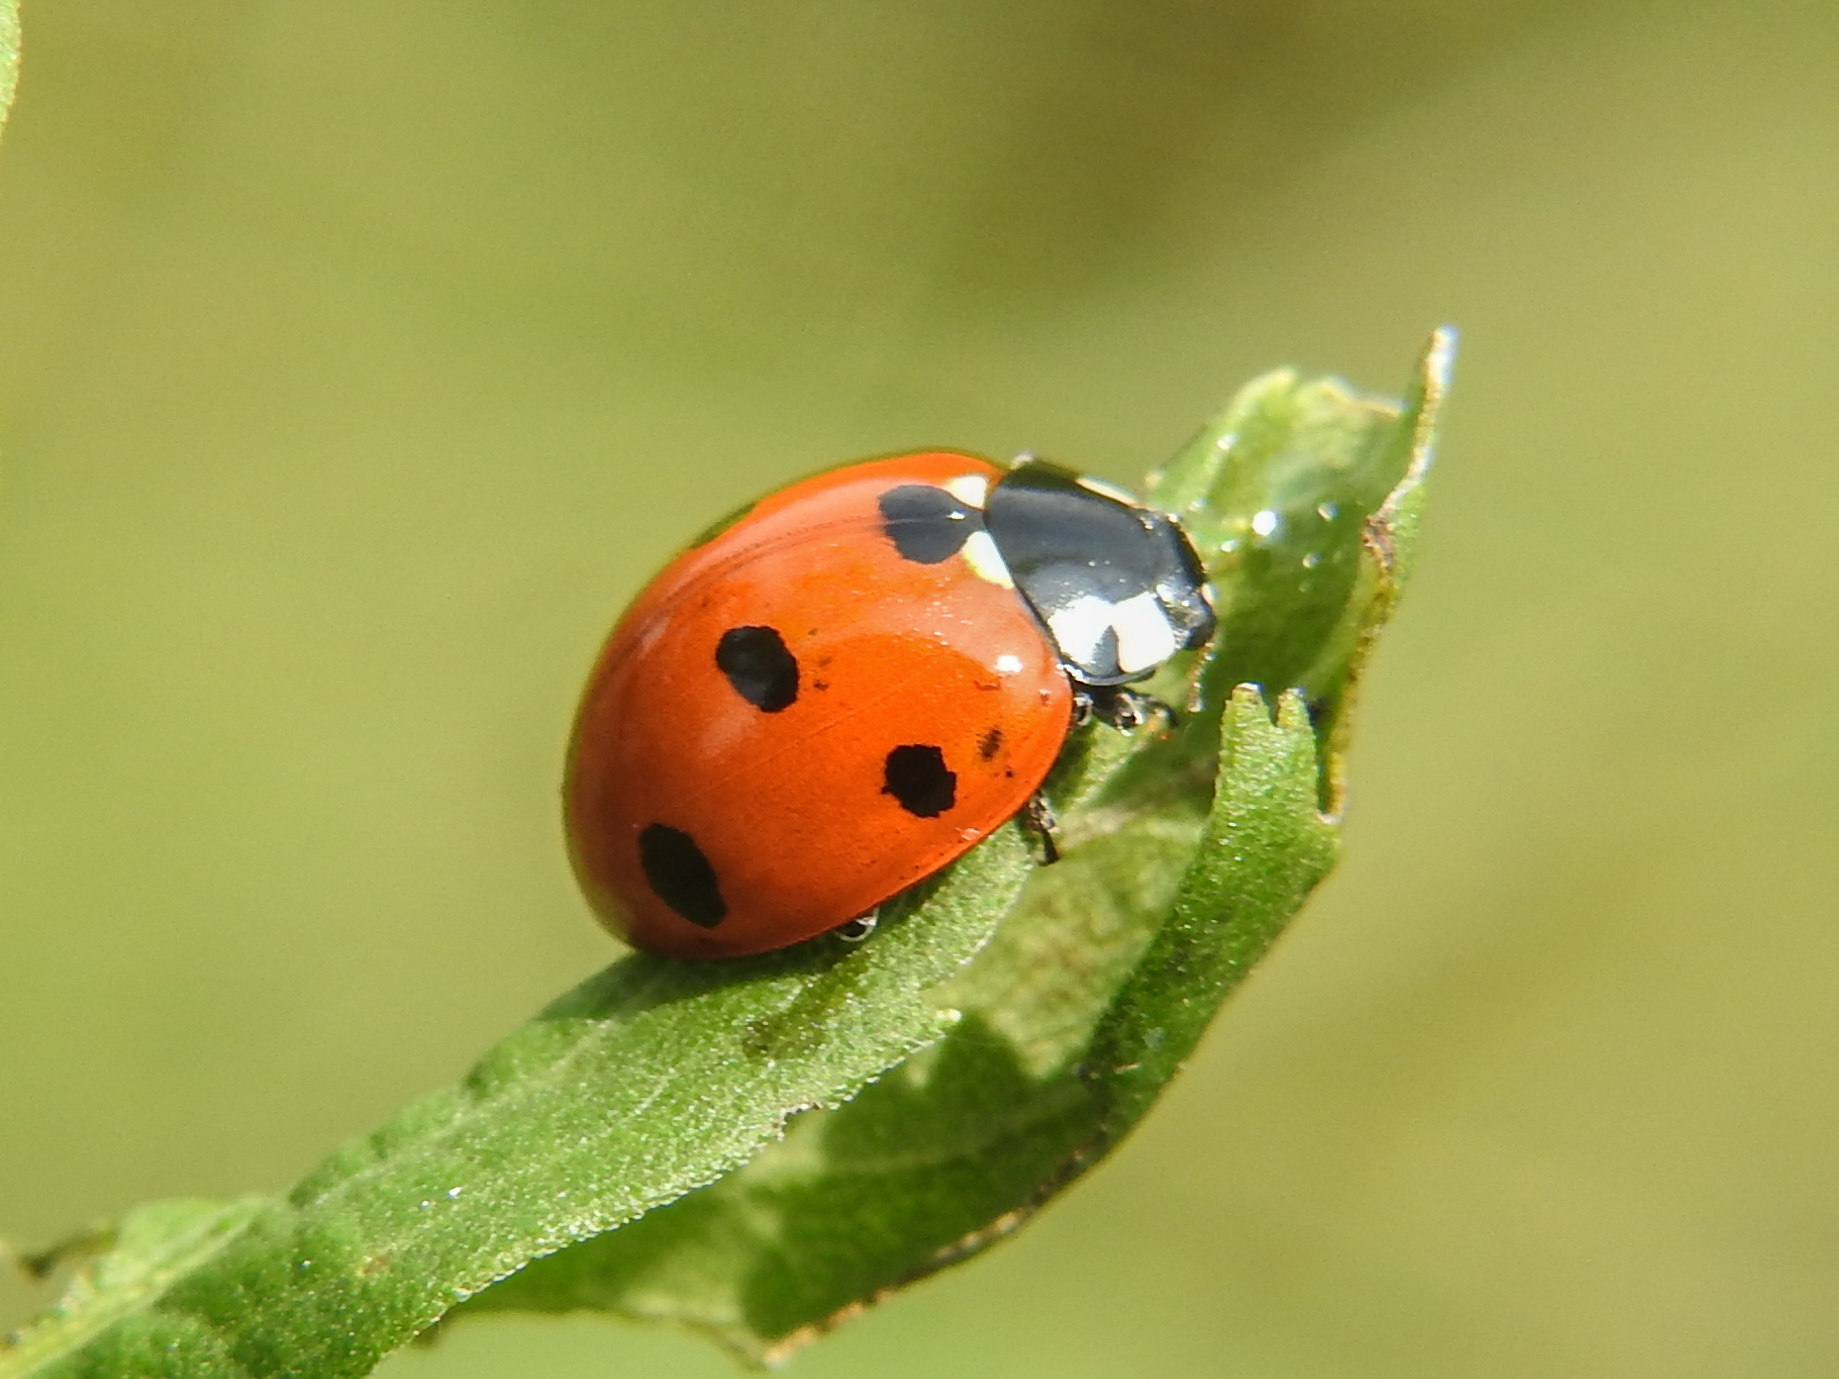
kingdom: Animalia
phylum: Arthropoda
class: Insecta
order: Coleoptera
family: Coccinellidae
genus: Coccinella
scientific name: Coccinella septempunctata
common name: Sevenspotted lady beetle
